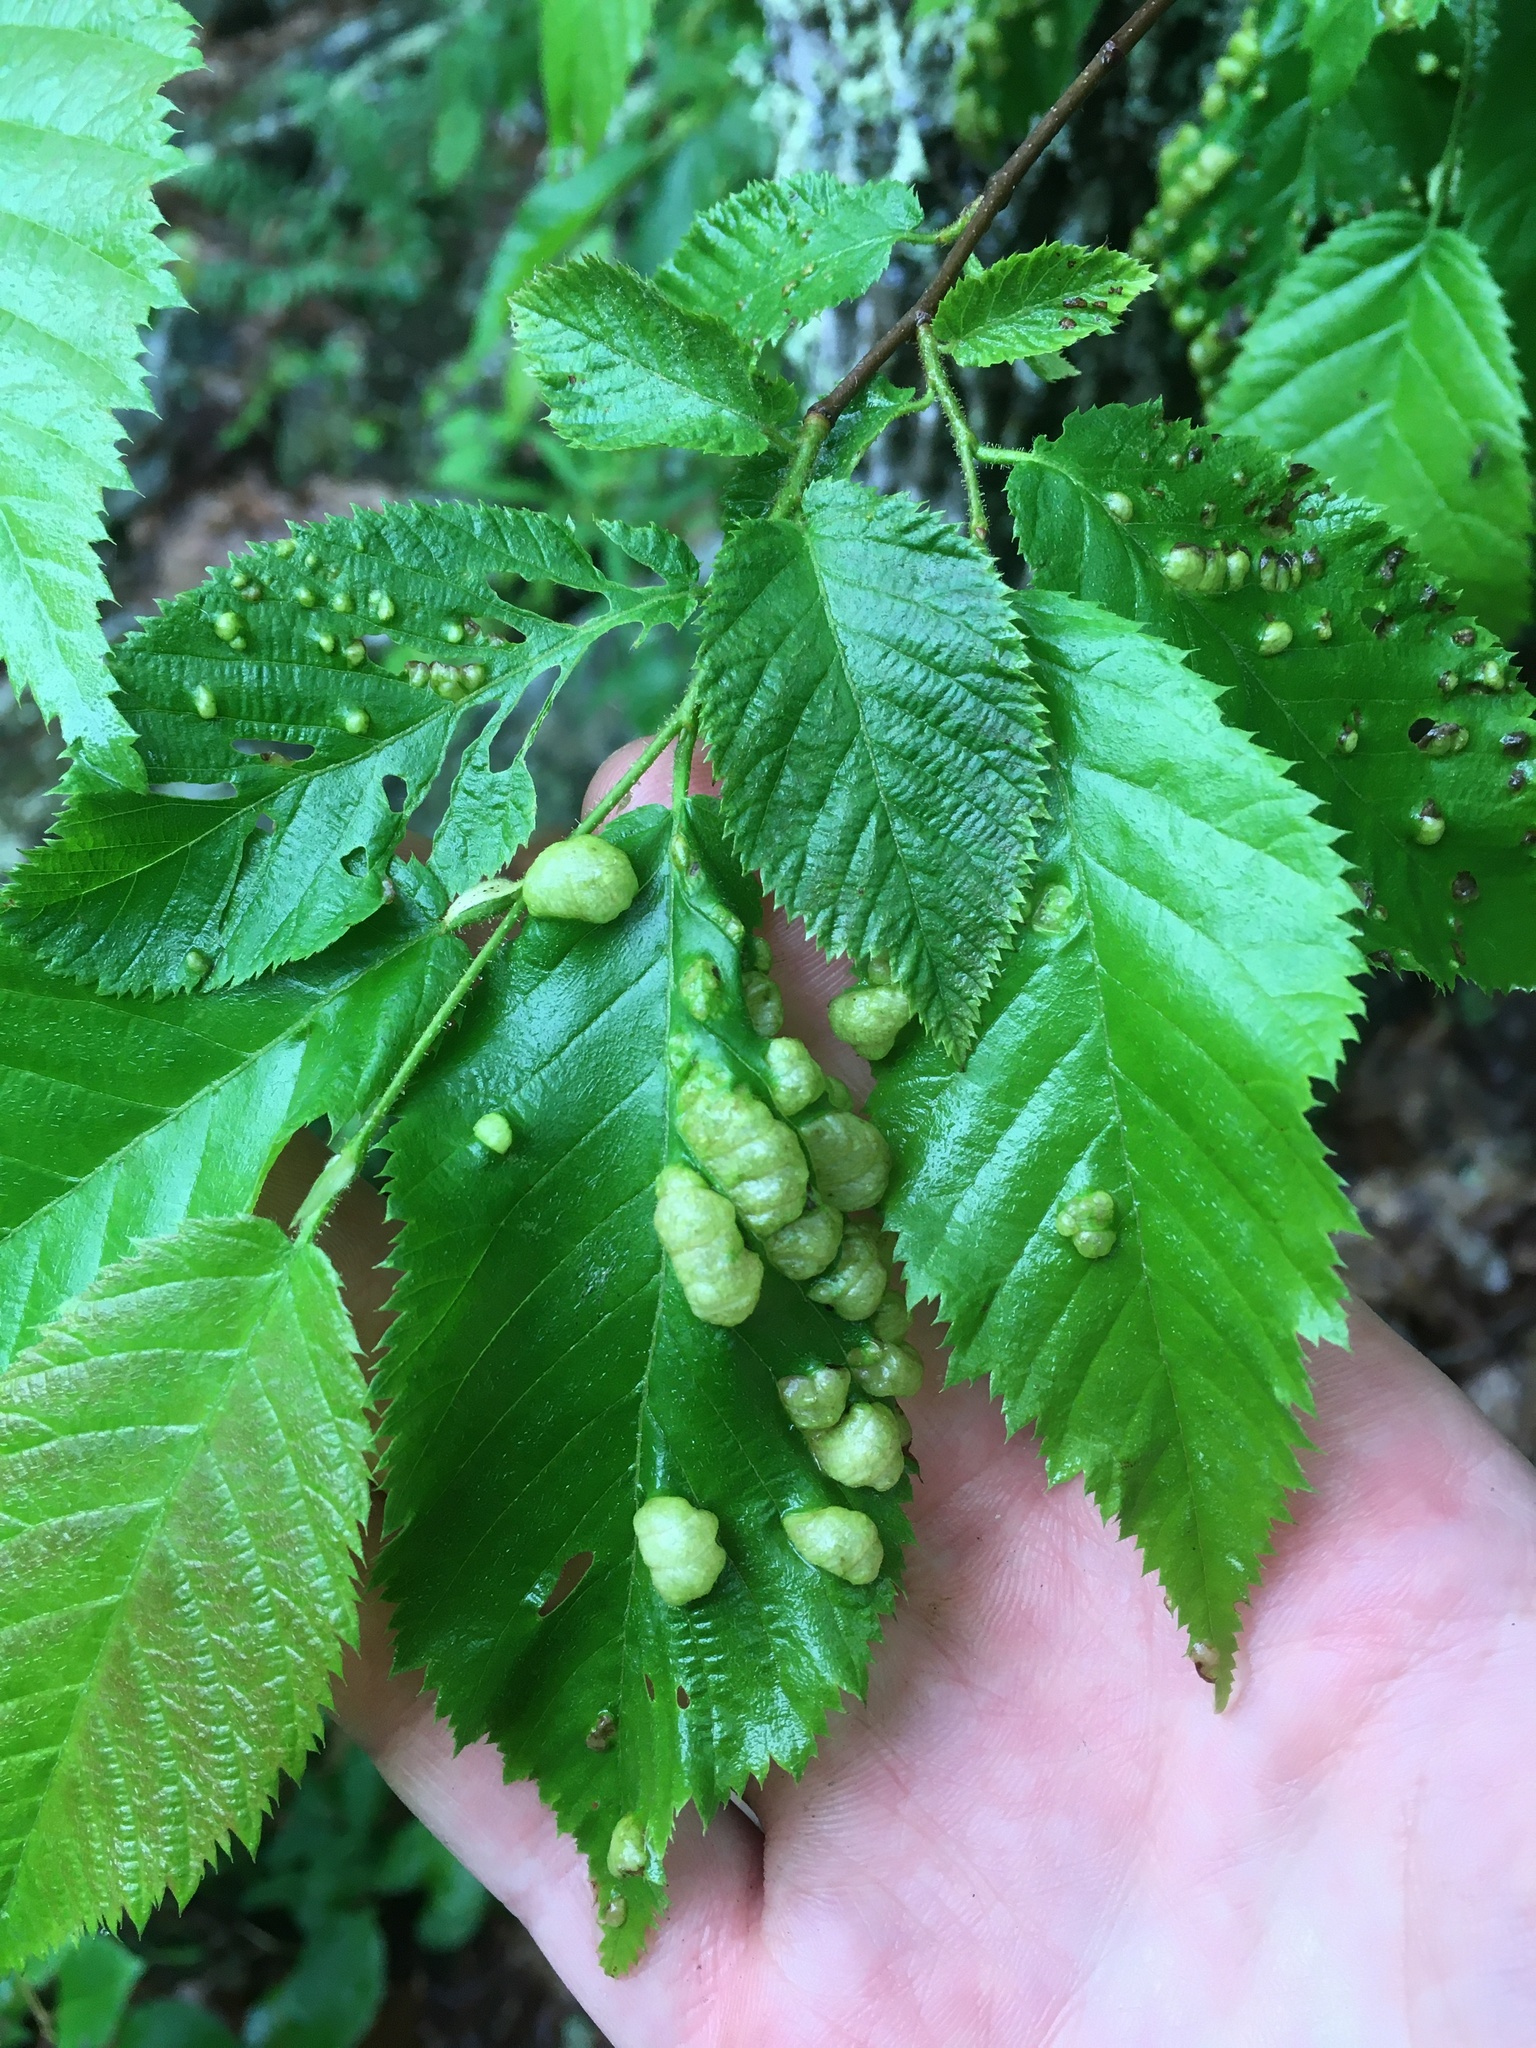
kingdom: Fungi
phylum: Ascomycota
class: Taphrinomycetes
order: Taphrinales
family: Taphrinaceae
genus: Taphrina
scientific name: Taphrina virginica
